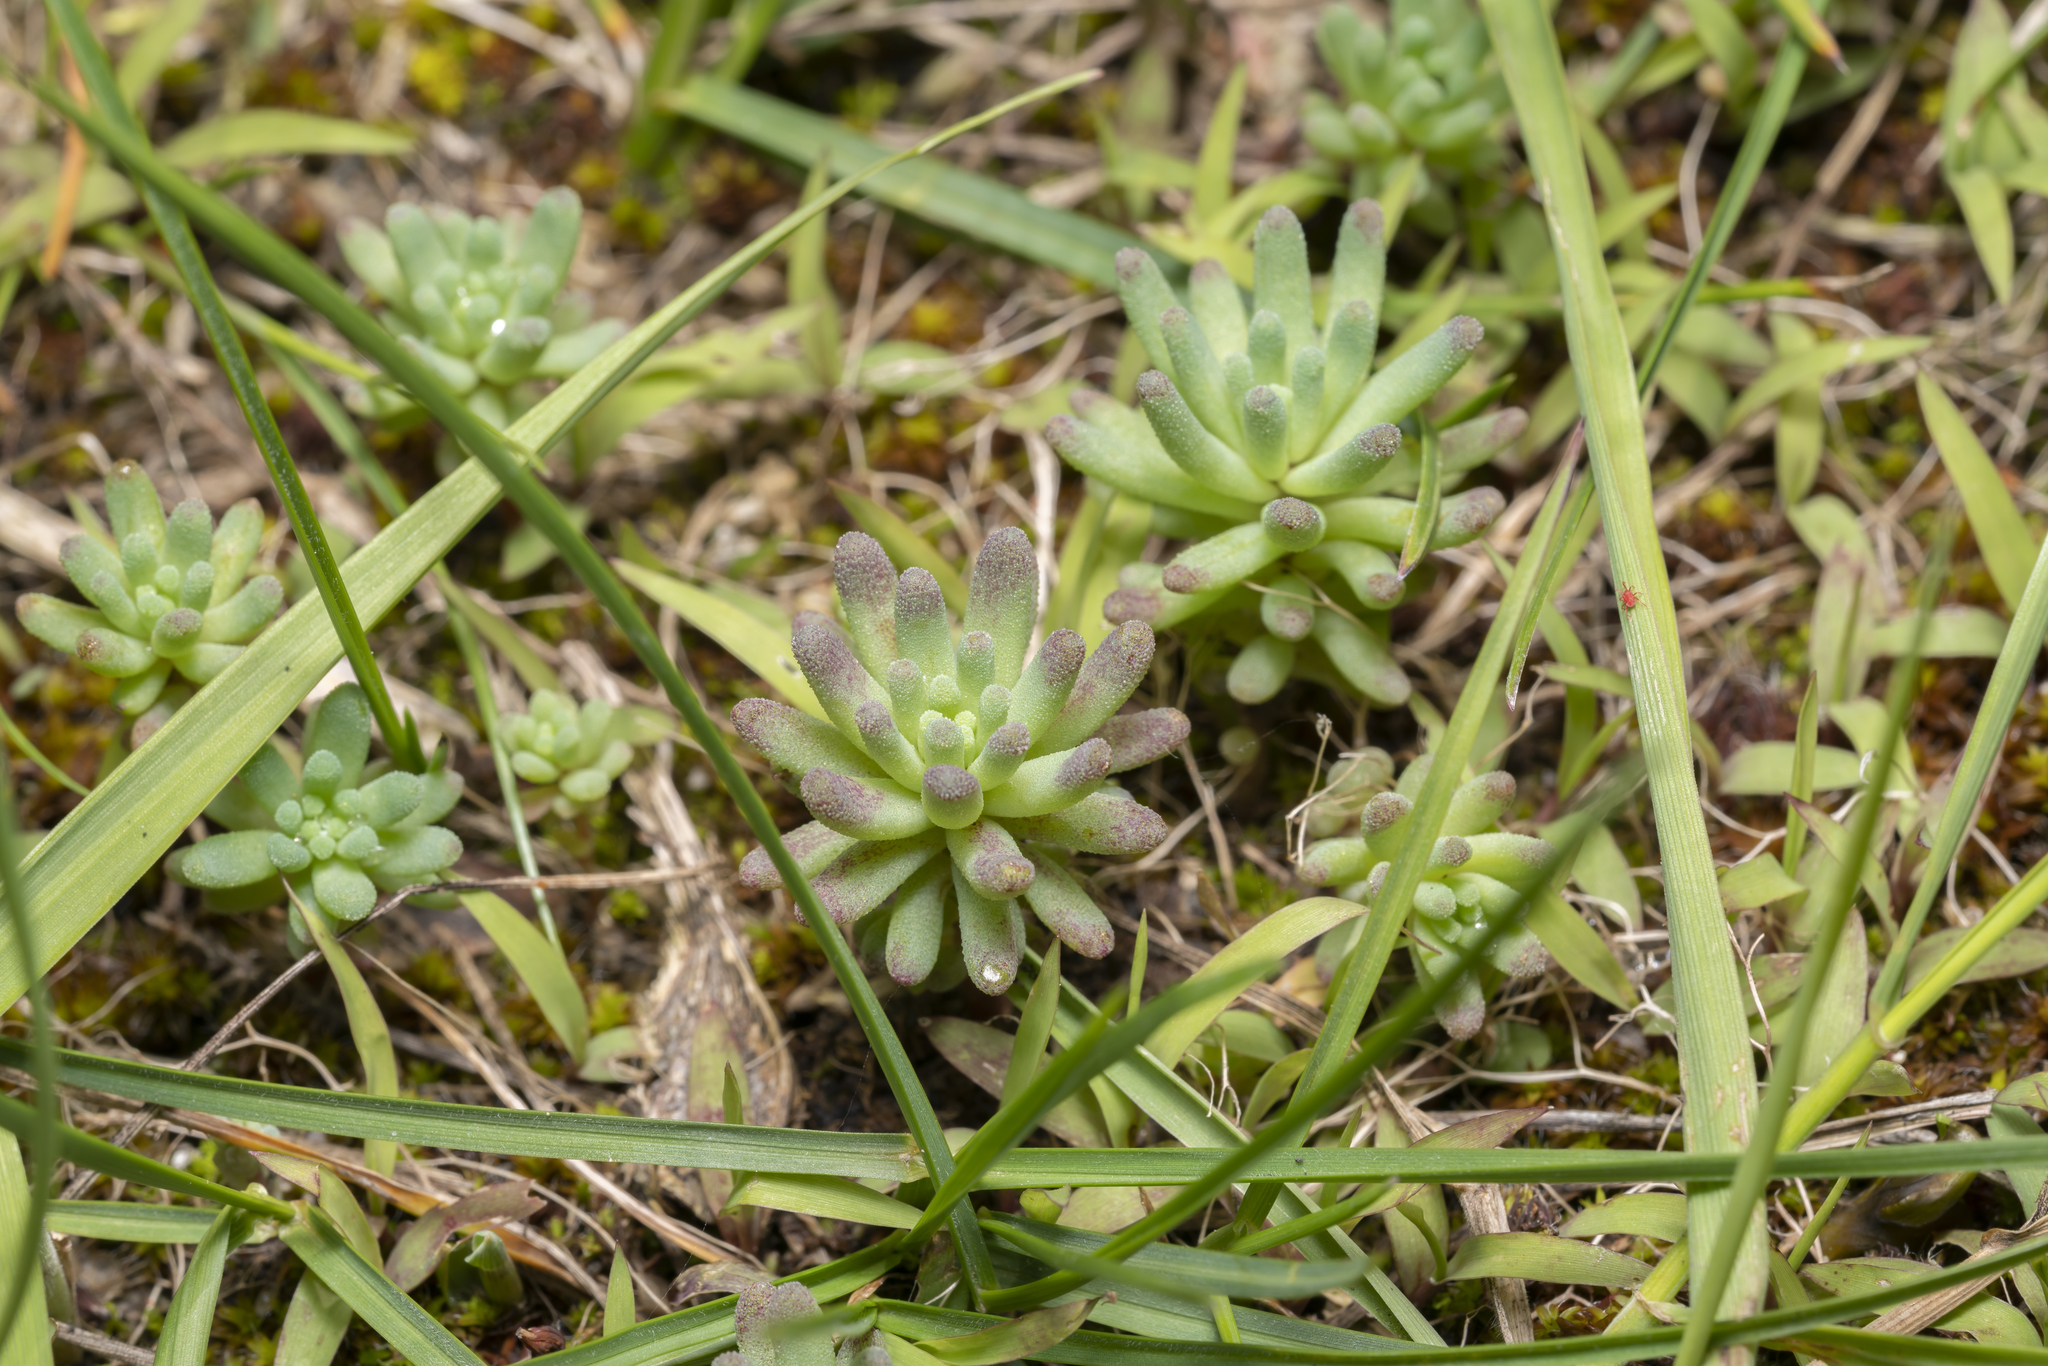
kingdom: Plantae
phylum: Tracheophyta
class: Magnoliopsida
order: Saxifragales
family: Crassulaceae
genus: Sedum
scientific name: Sedum rubens
